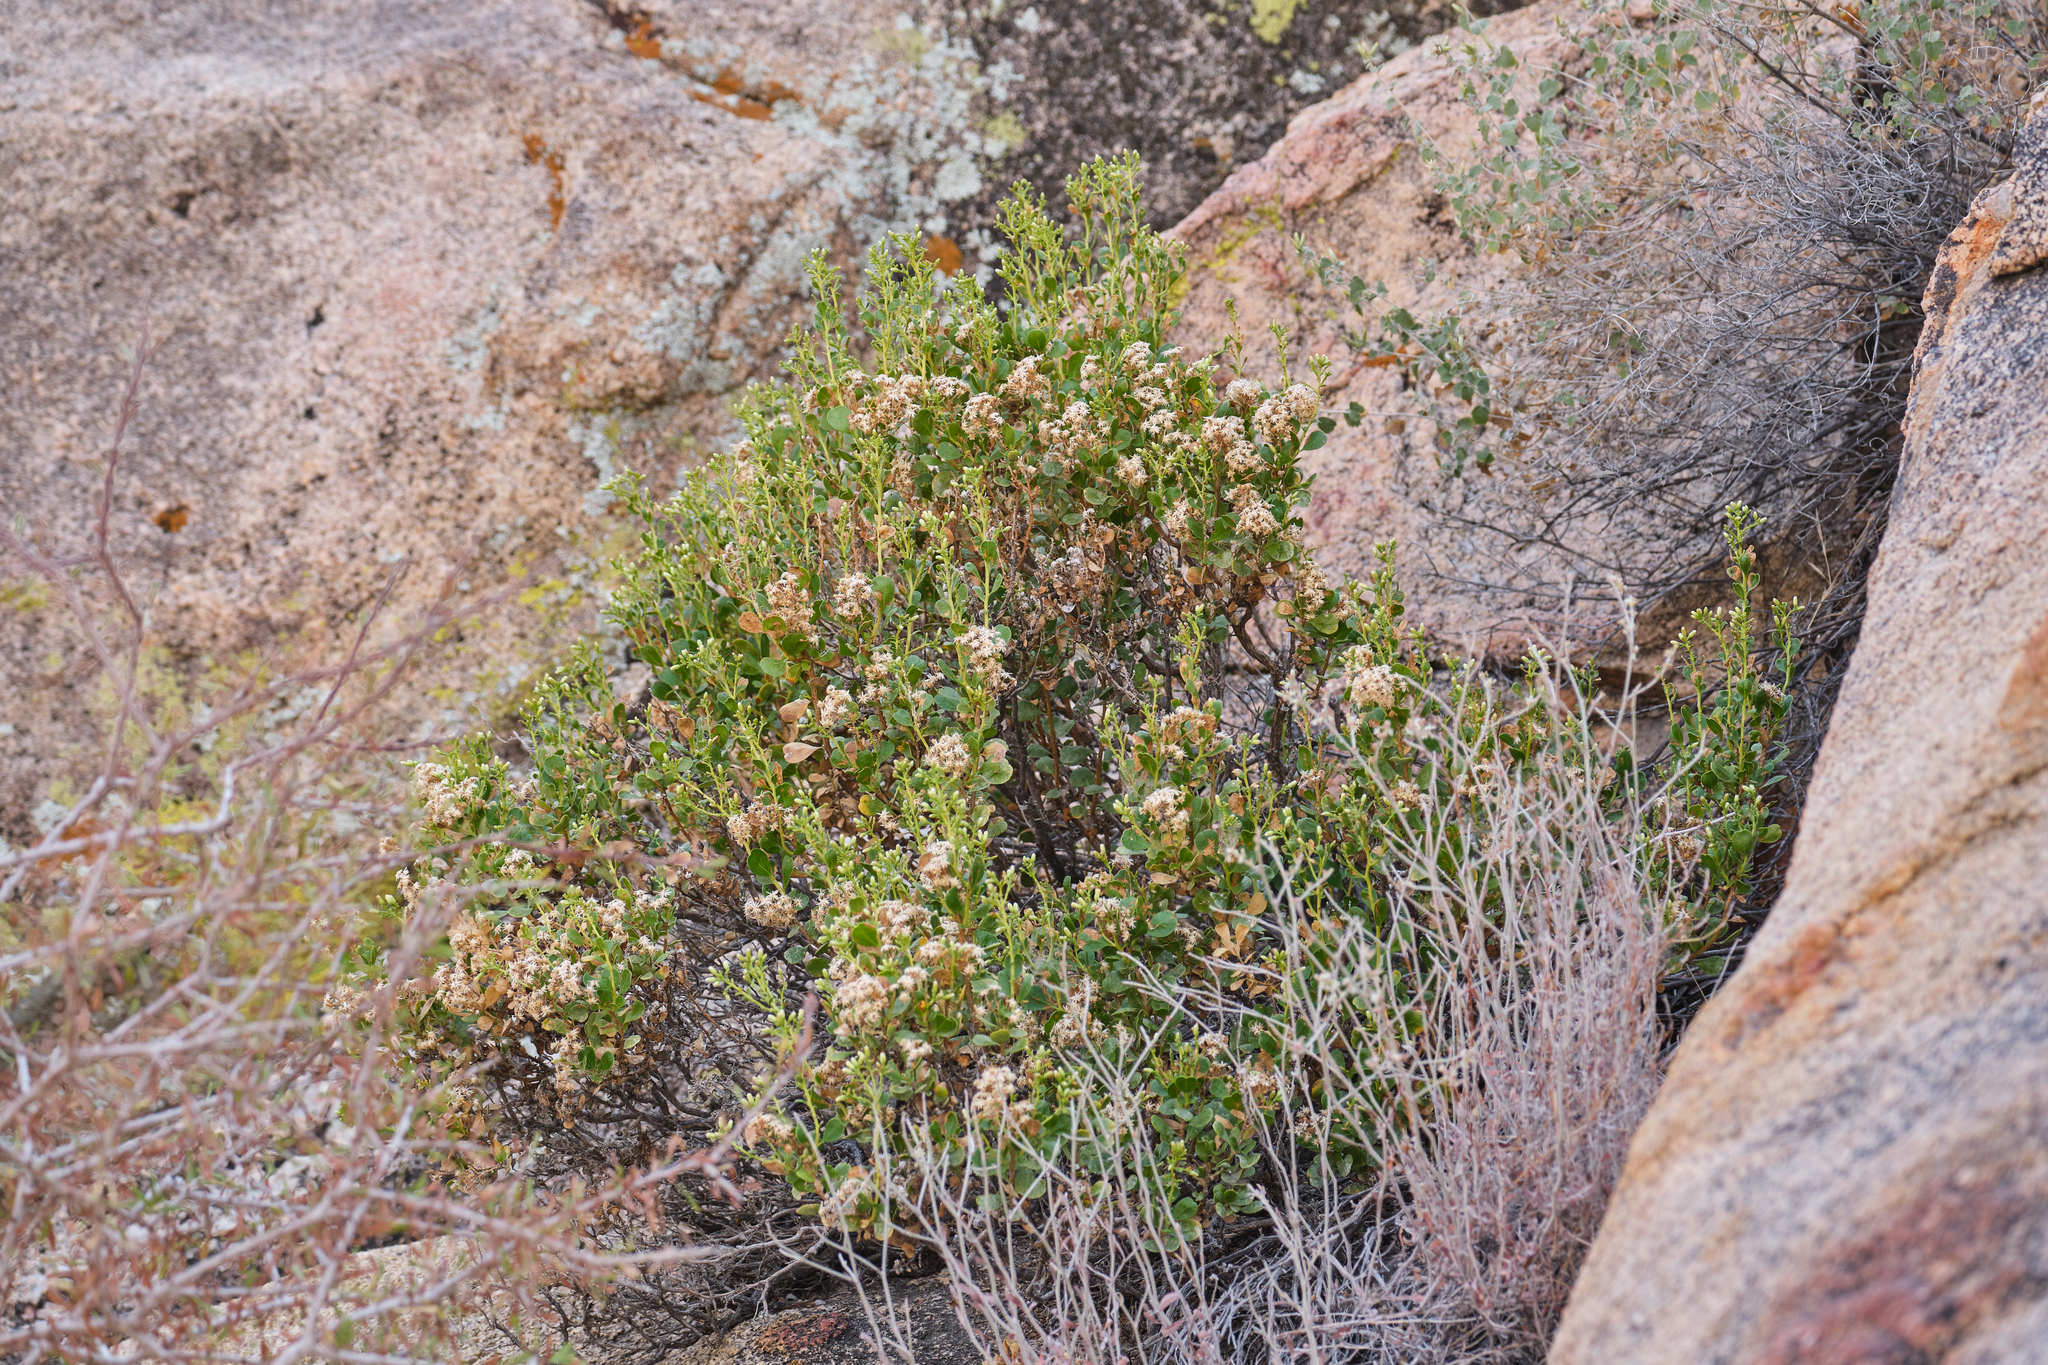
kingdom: Plantae
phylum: Tracheophyta
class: Magnoliopsida
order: Asterales
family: Asteraceae
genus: Ericameria
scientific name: Ericameria cuneata
